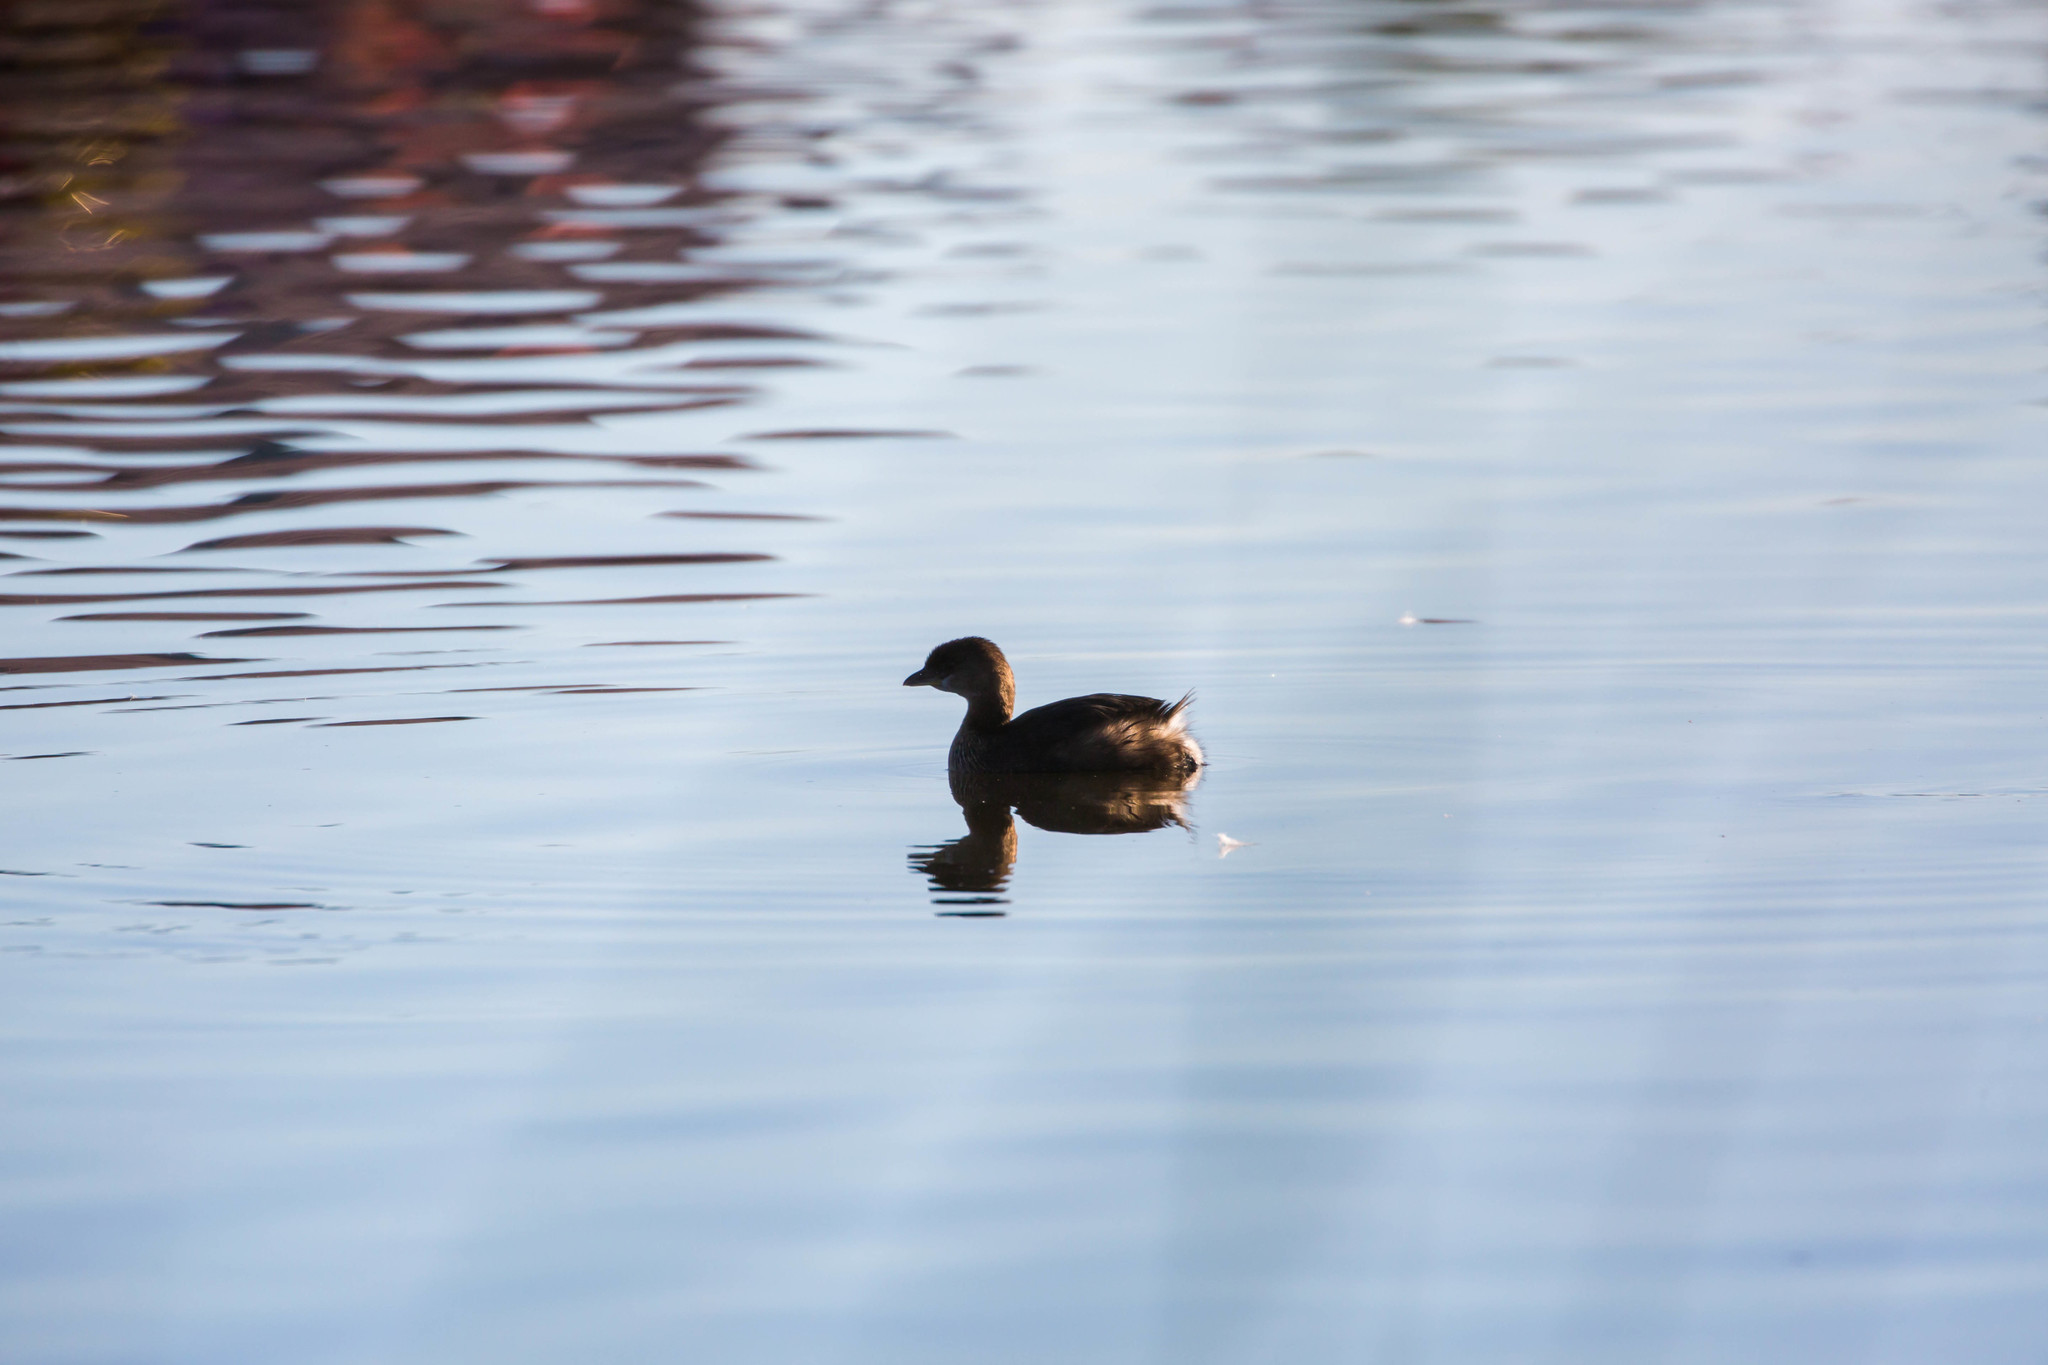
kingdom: Animalia
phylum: Chordata
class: Aves
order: Podicipediformes
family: Podicipedidae
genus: Podilymbus
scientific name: Podilymbus podiceps
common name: Pied-billed grebe
